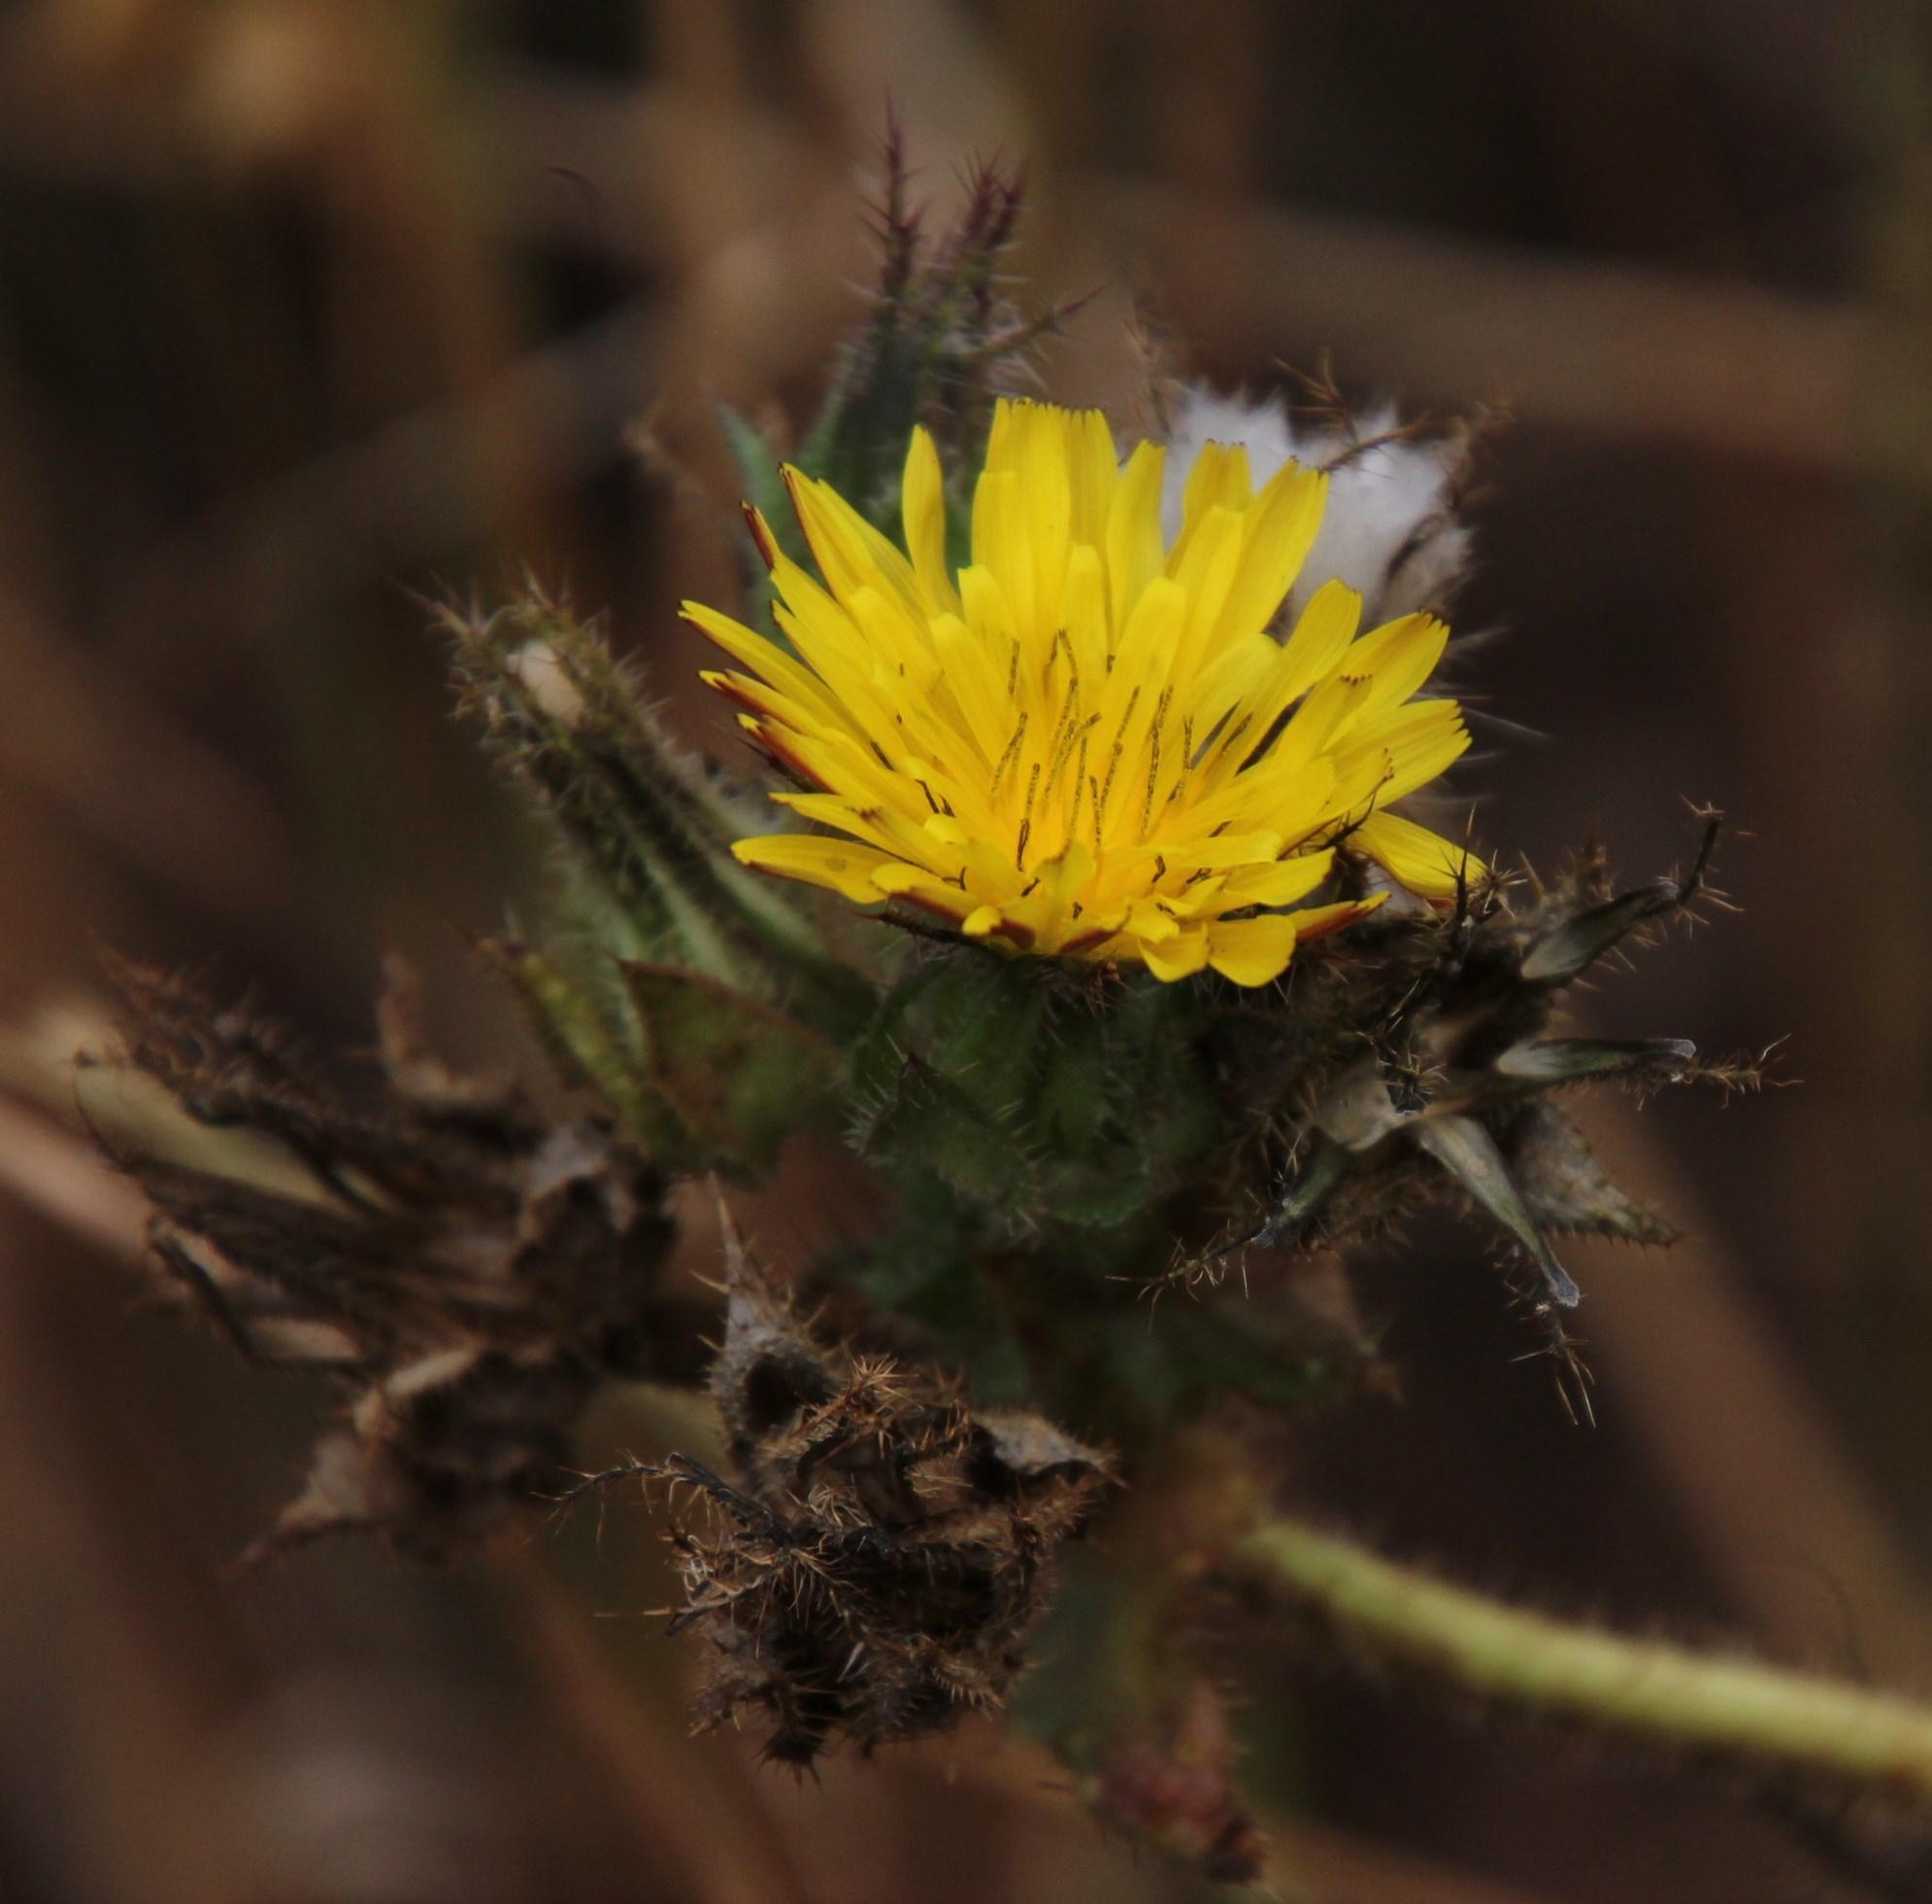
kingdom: Plantae
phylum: Tracheophyta
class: Magnoliopsida
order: Asterales
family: Asteraceae
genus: Helminthotheca
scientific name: Helminthotheca echioides
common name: Ox-tongue
